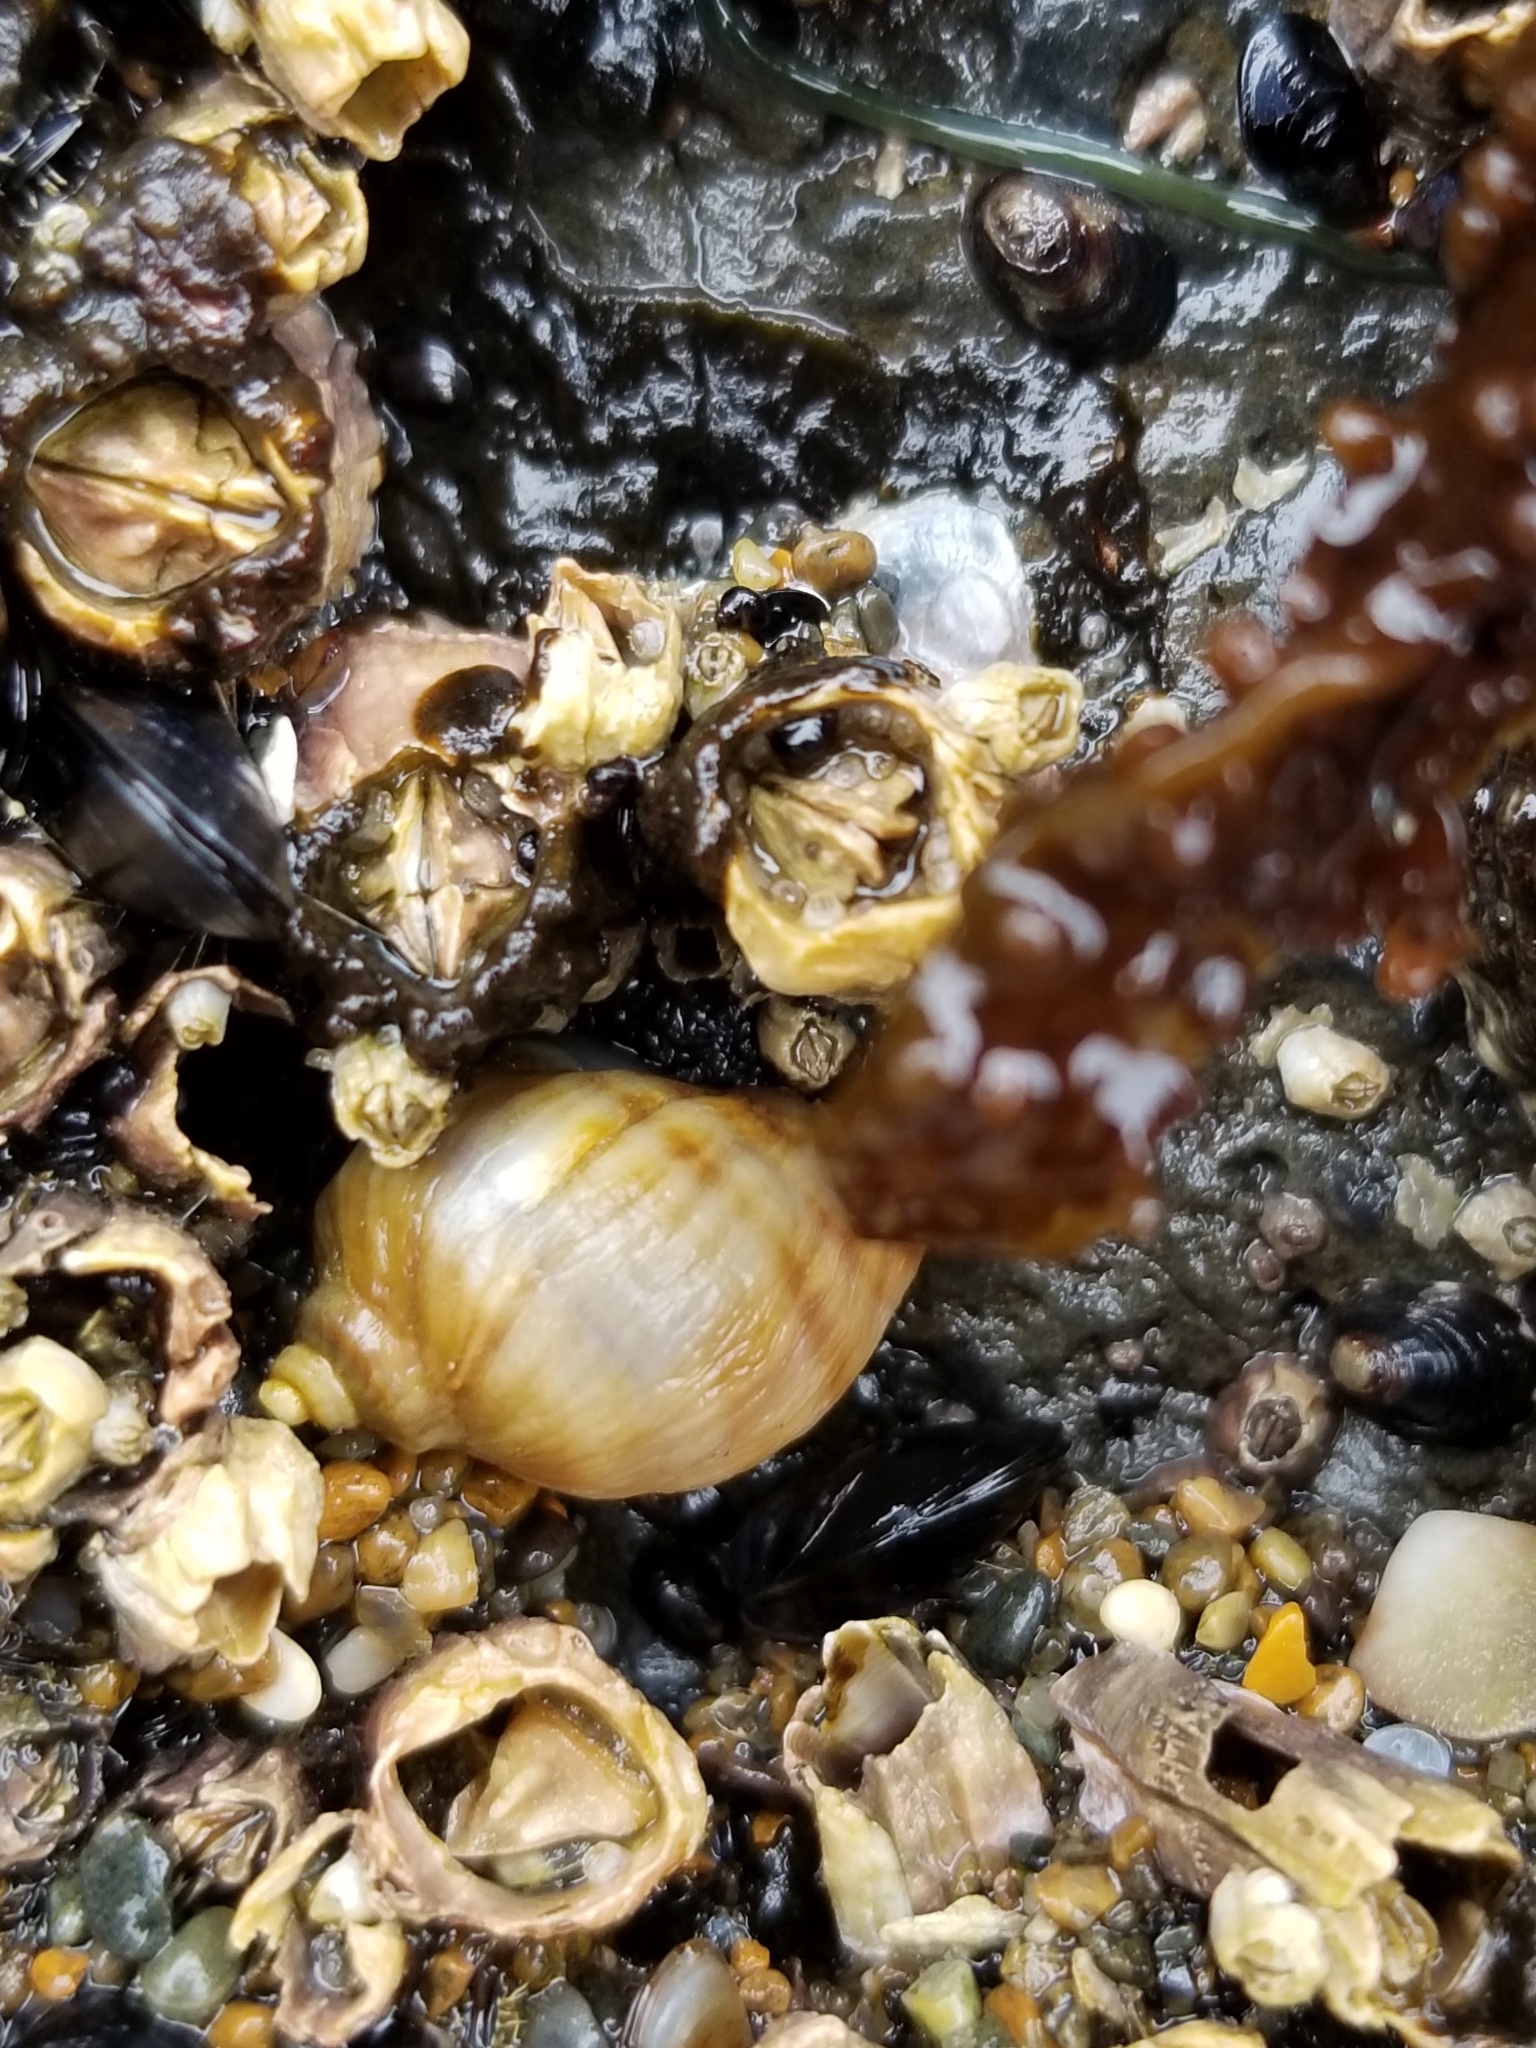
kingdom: Animalia
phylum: Mollusca
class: Gastropoda
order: Neogastropoda
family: Muricidae
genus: Nucella
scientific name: Nucella ostrina
